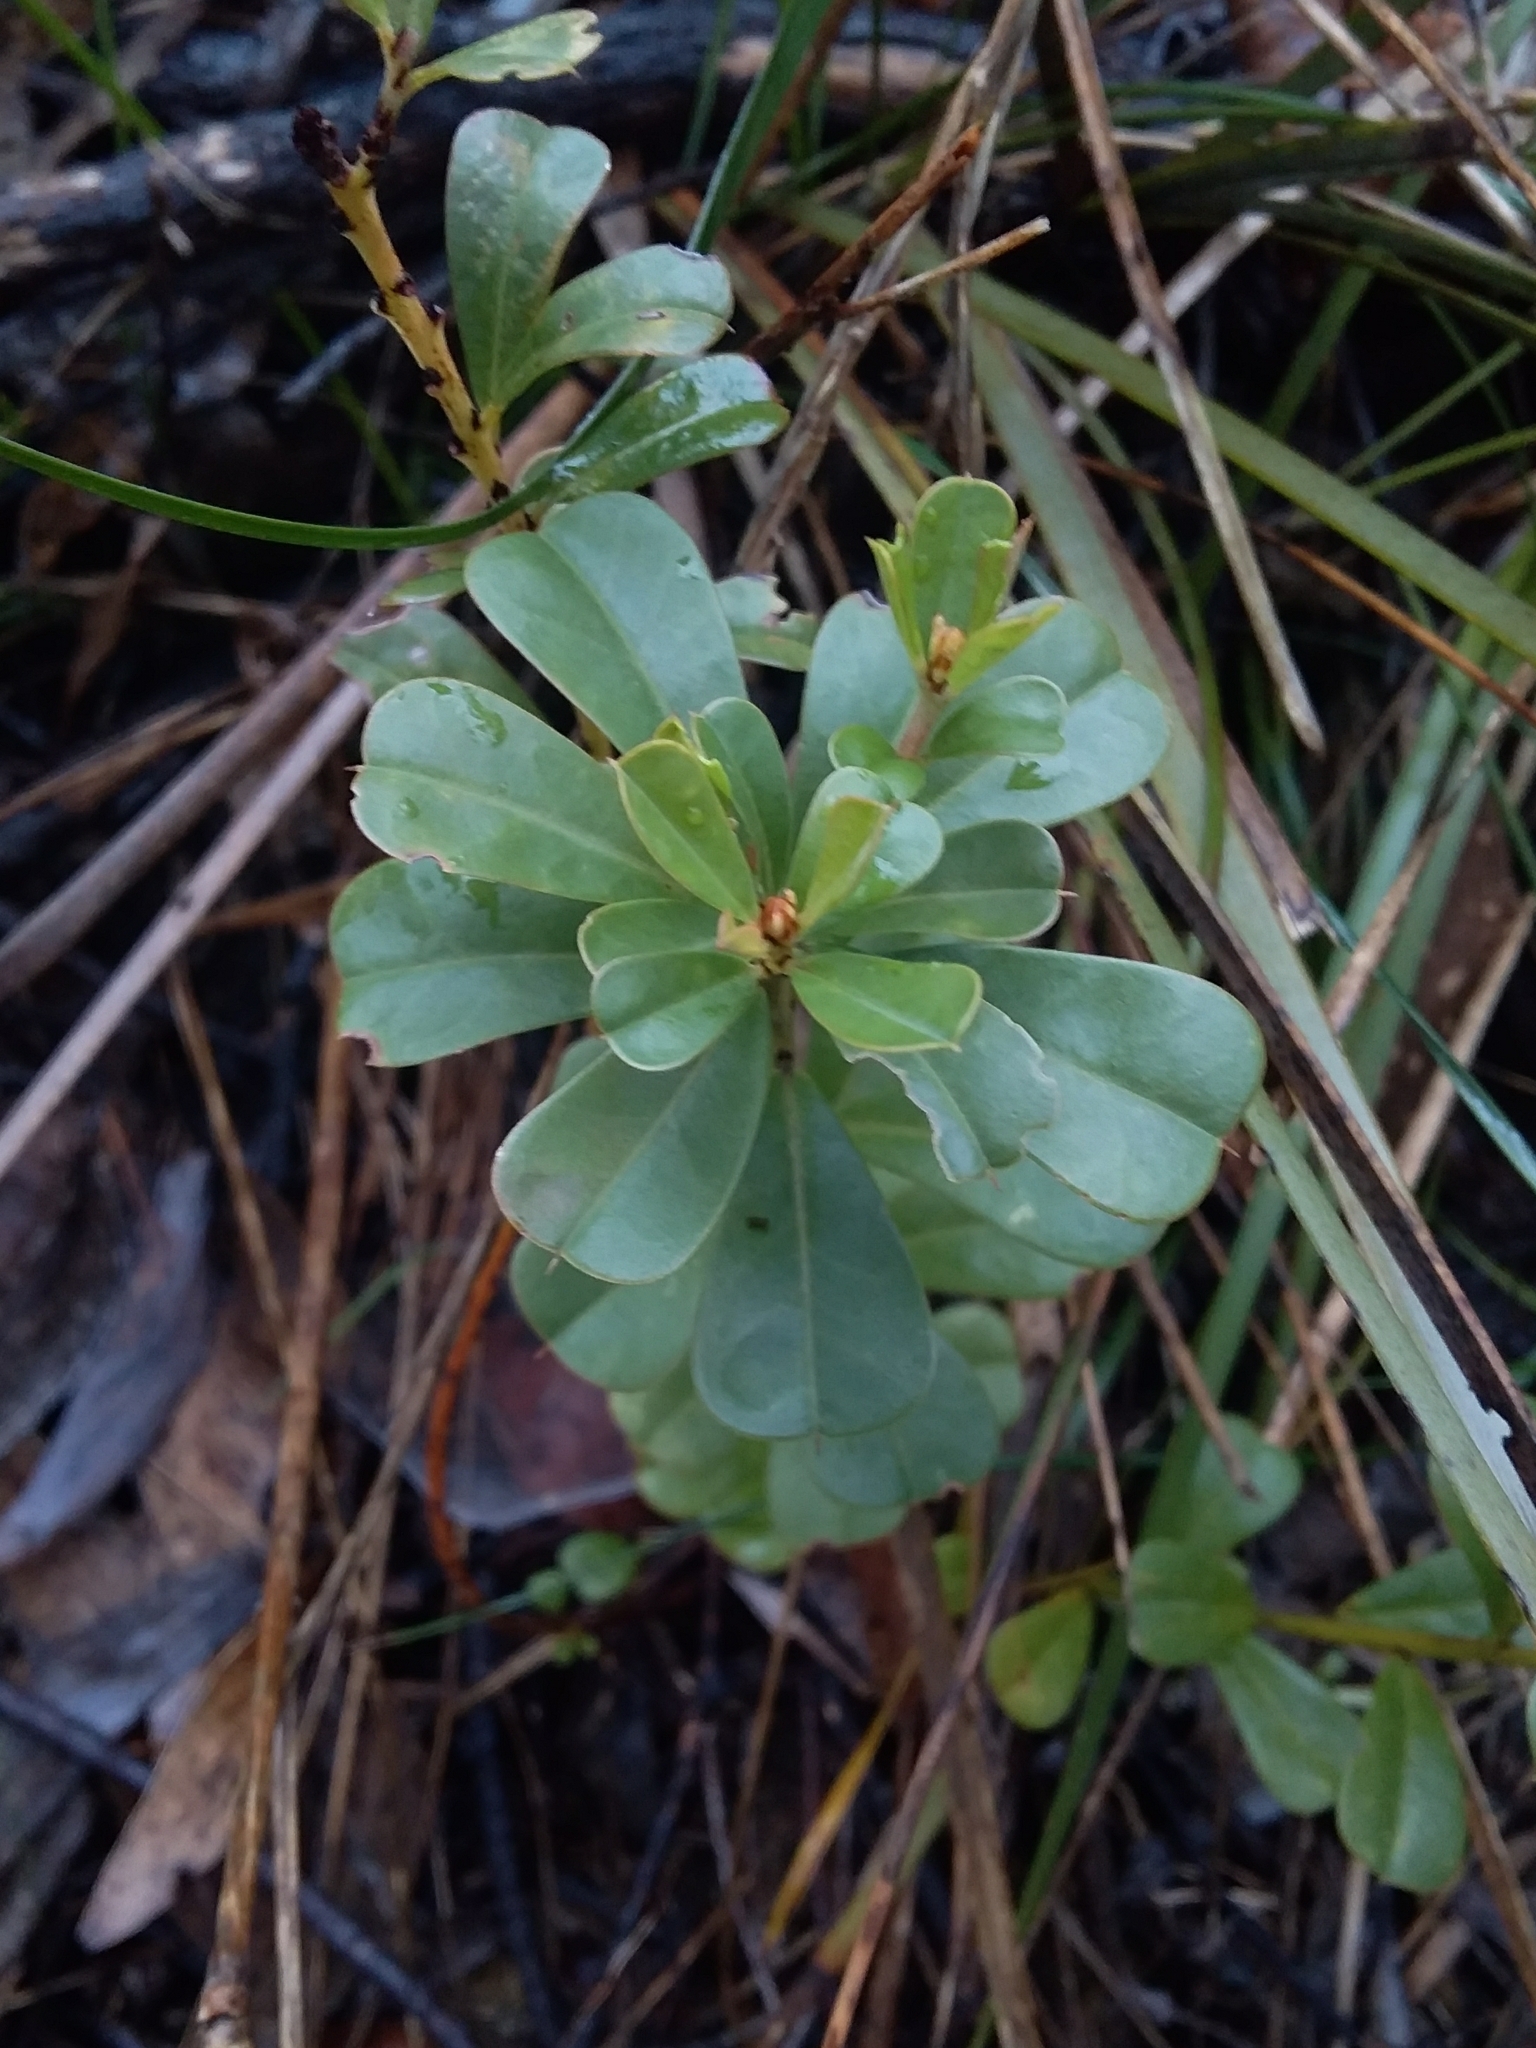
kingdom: Plantae
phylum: Tracheophyta
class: Magnoliopsida
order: Fabales
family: Fabaceae
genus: Pultenaea
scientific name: Pultenaea daphnoides
